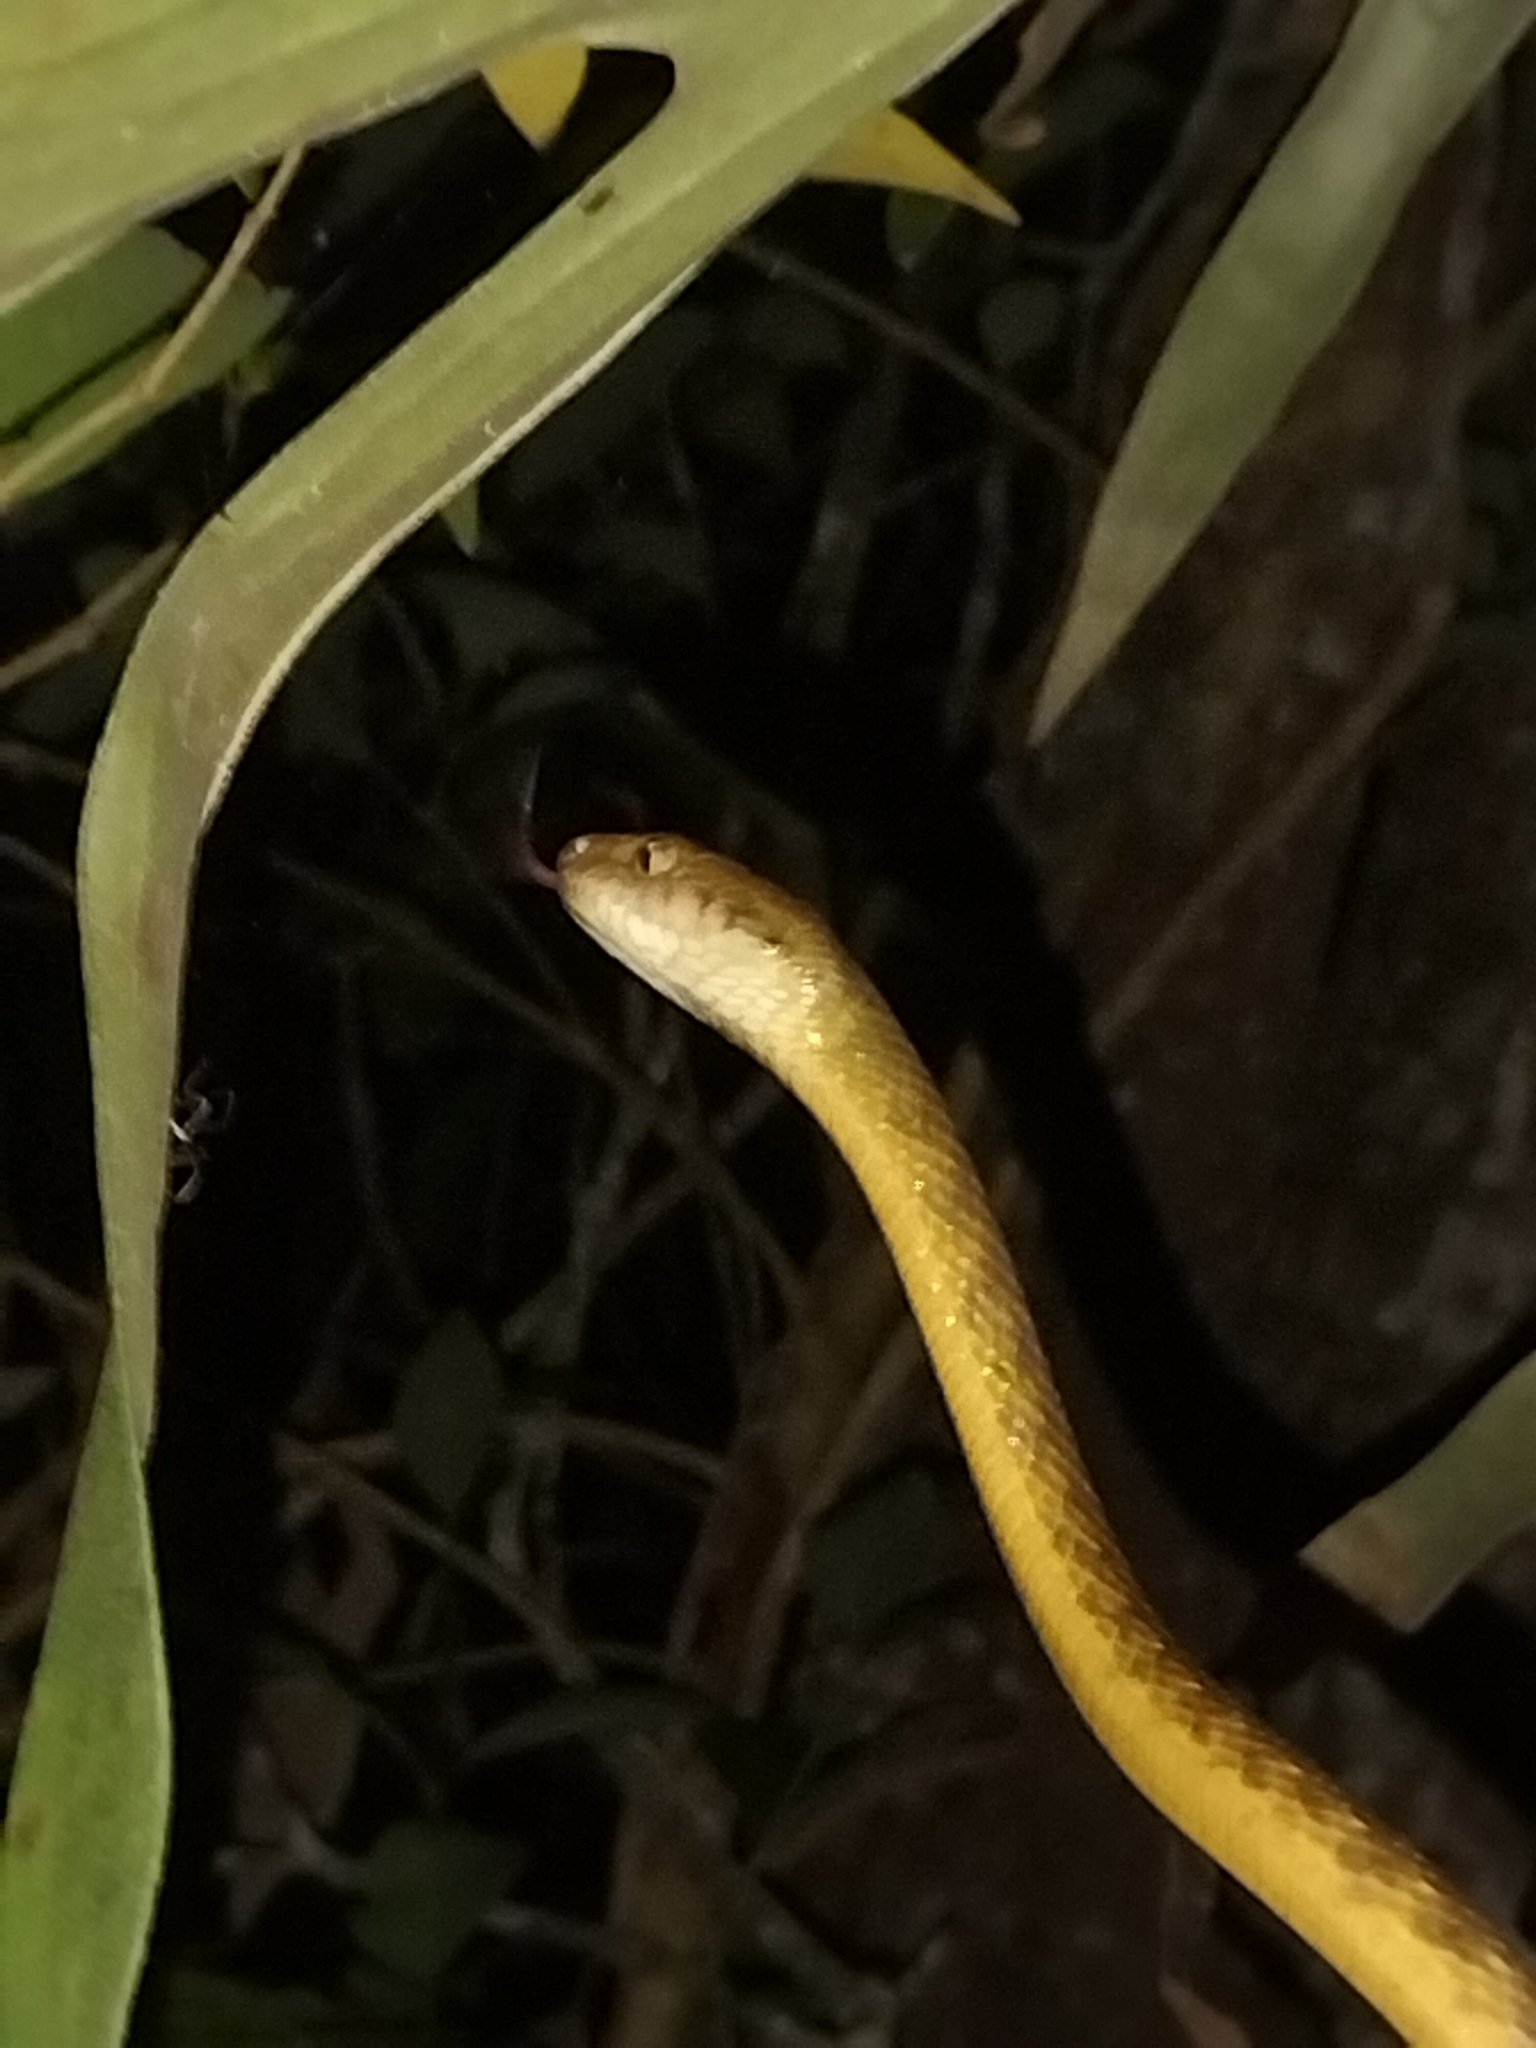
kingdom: Animalia
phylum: Chordata
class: Squamata
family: Colubridae
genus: Boiga
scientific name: Boiga irregularis
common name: Brown tree snake
